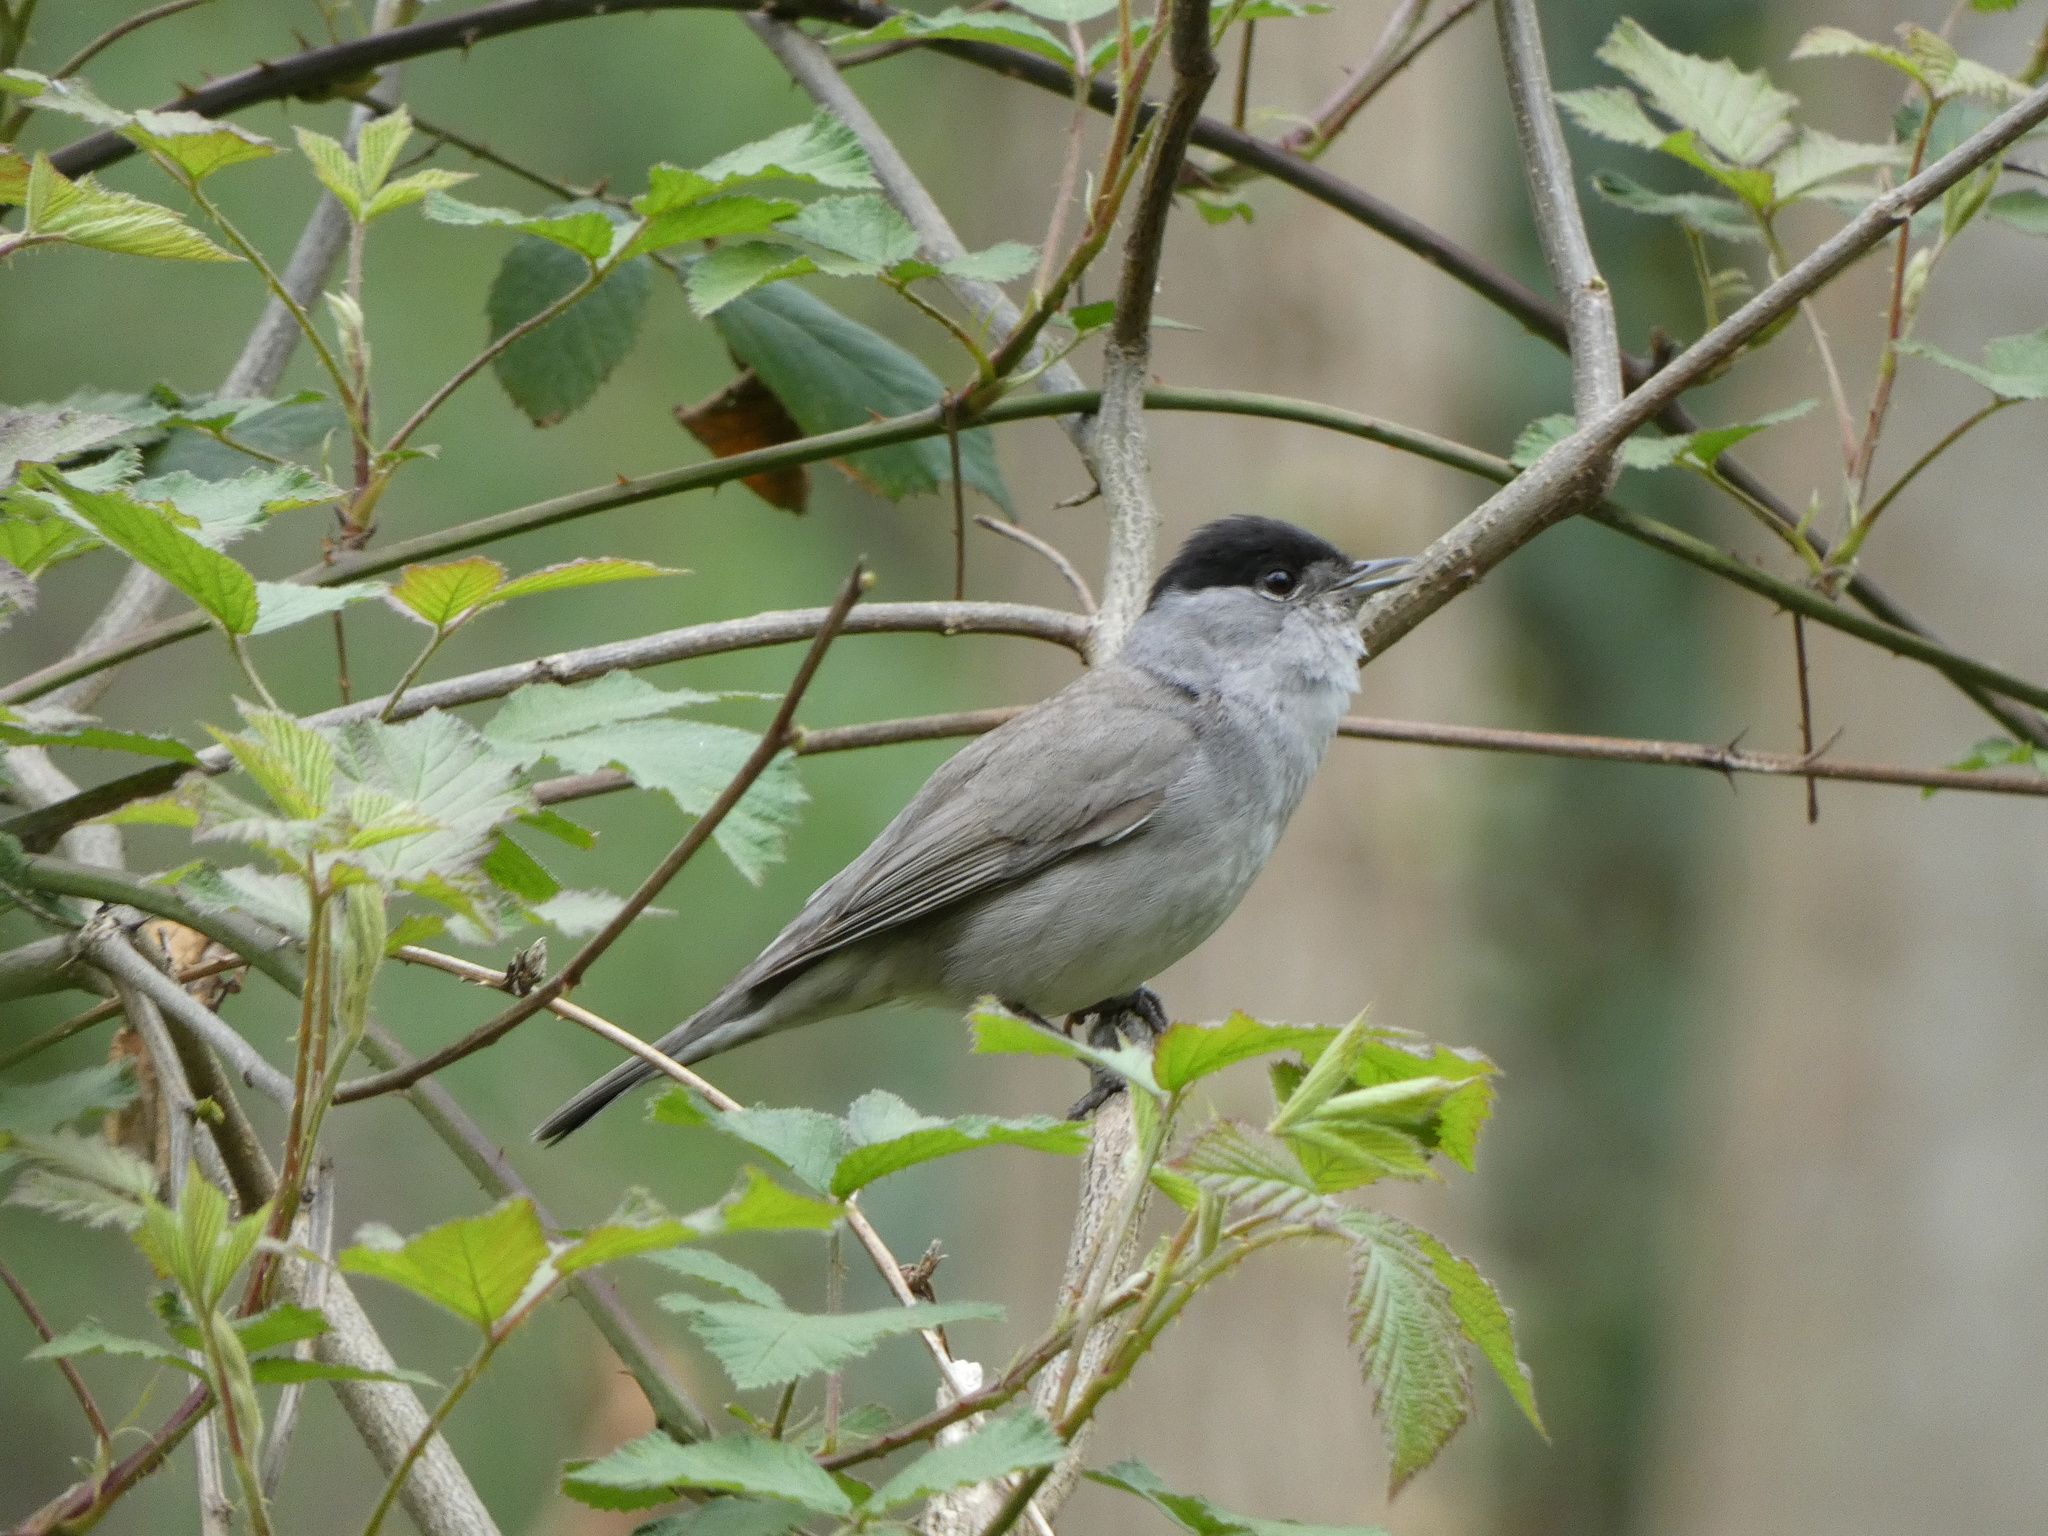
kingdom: Animalia
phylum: Chordata
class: Aves
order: Passeriformes
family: Sylviidae
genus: Sylvia
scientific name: Sylvia atricapilla
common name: Eurasian blackcap
